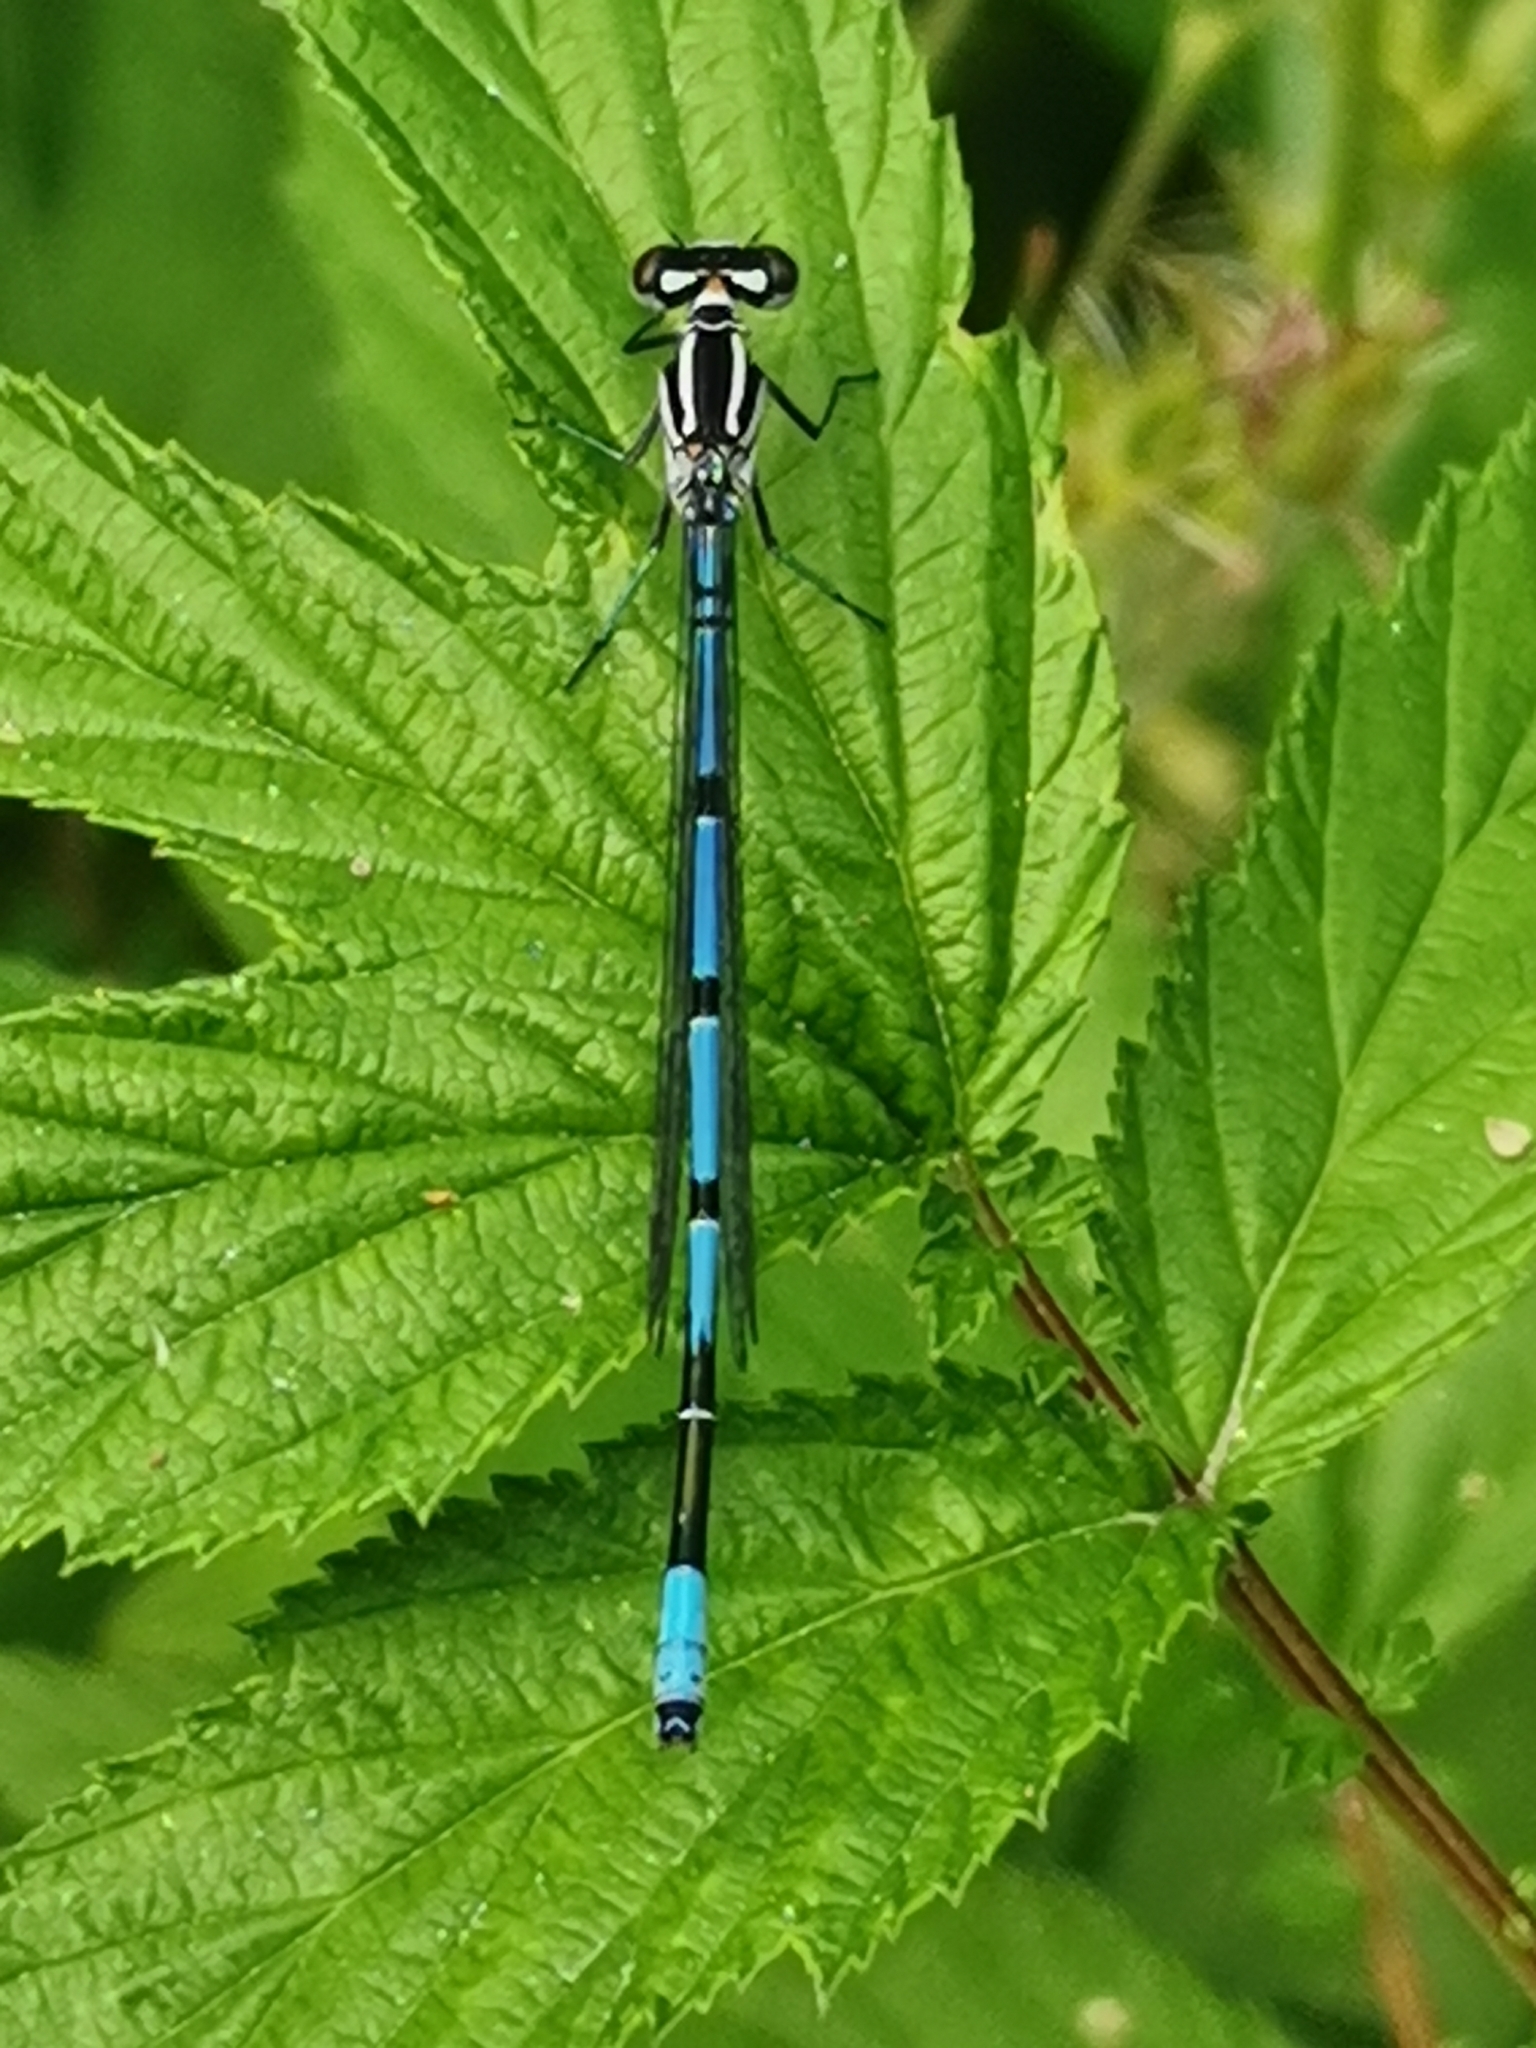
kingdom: Animalia
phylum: Arthropoda
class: Insecta
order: Odonata
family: Coenagrionidae
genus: Coenagrion
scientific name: Coenagrion puella
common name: Azure damselfly
